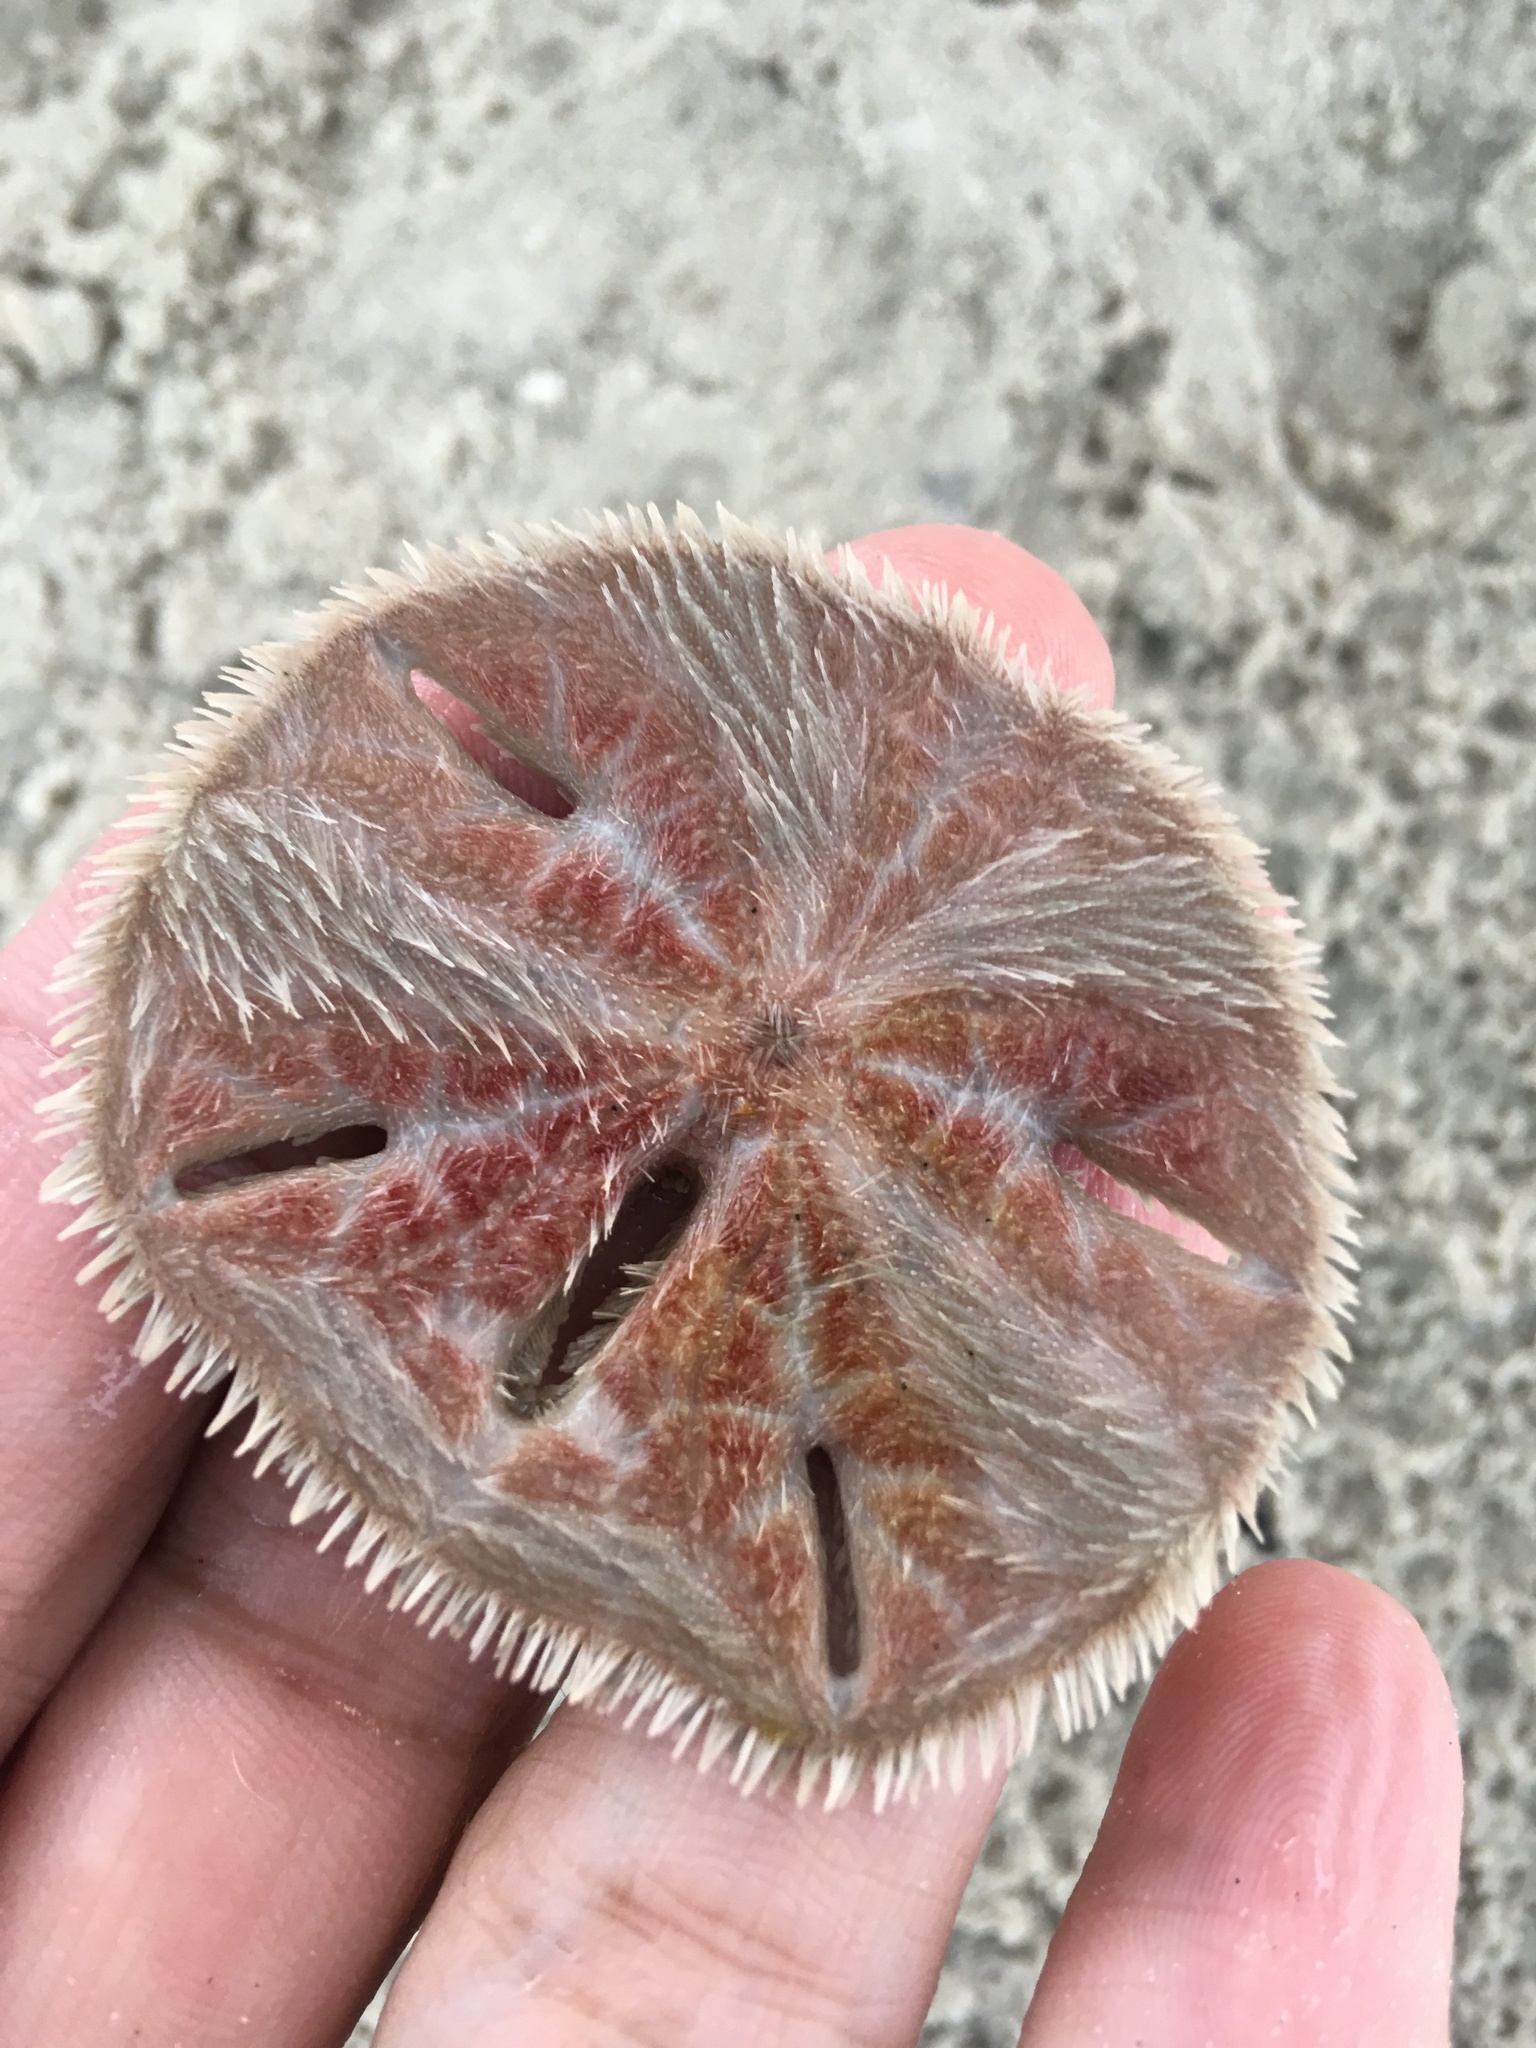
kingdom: Animalia
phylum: Echinodermata
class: Echinoidea
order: Echinolampadacea
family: Mellitidae
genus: Mellita
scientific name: Mellita quinquiesperforata
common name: Sand dollar
